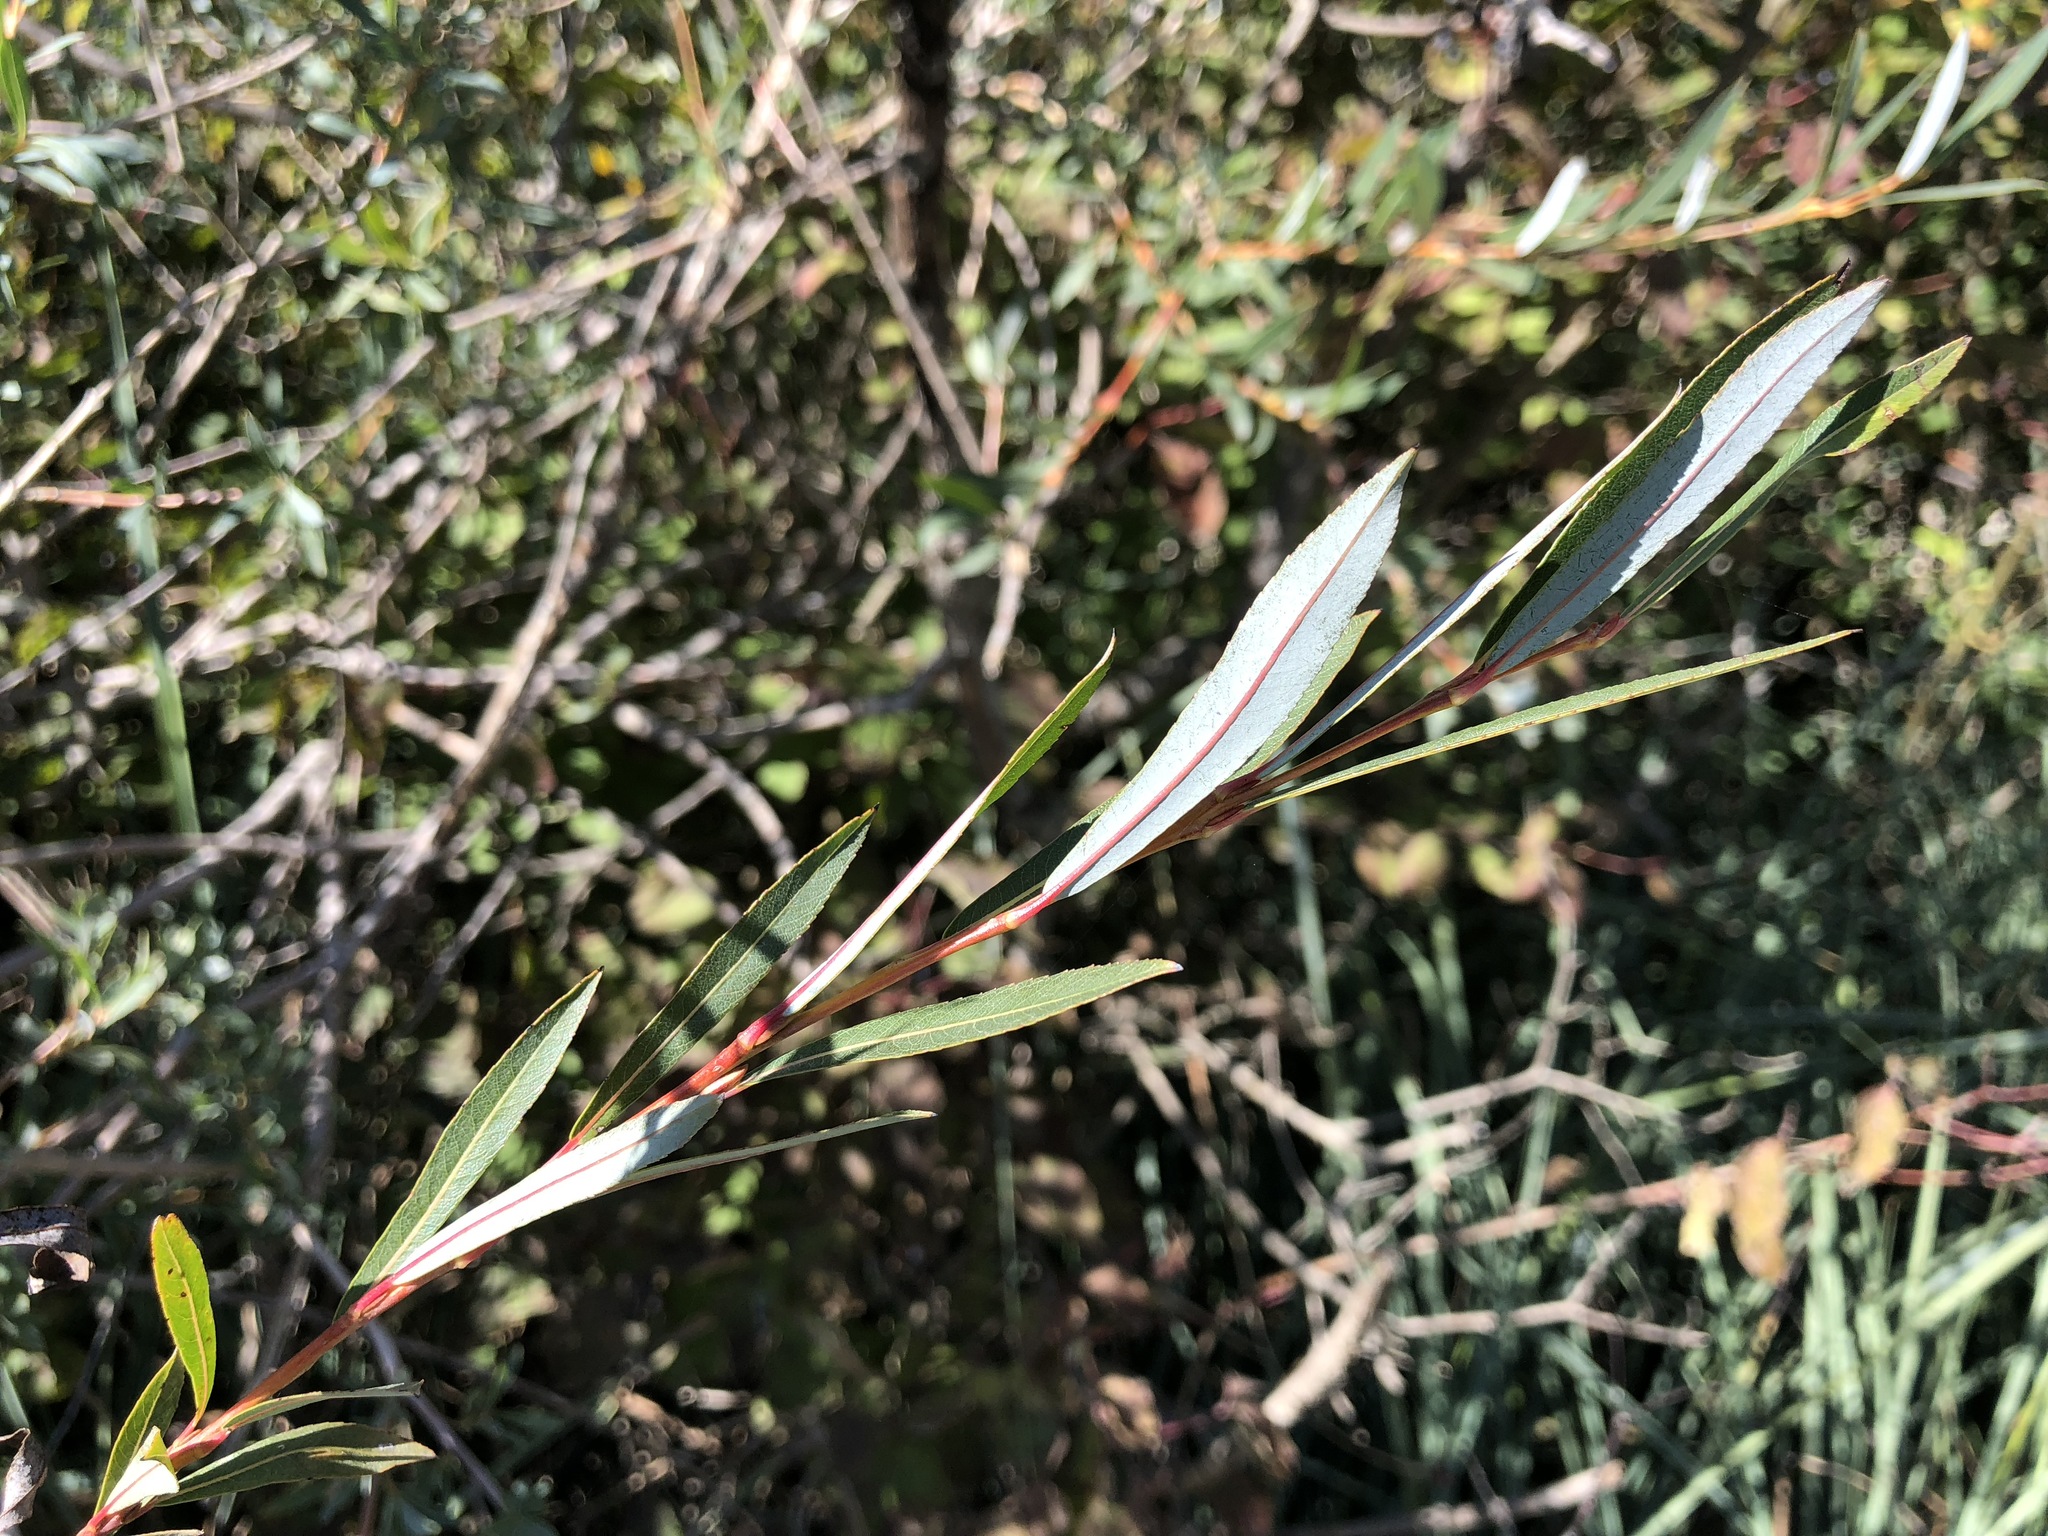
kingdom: Plantae
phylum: Tracheophyta
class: Magnoliopsida
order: Malpighiales
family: Salicaceae
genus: Salix
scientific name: Salix purpurea
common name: Purple willow
